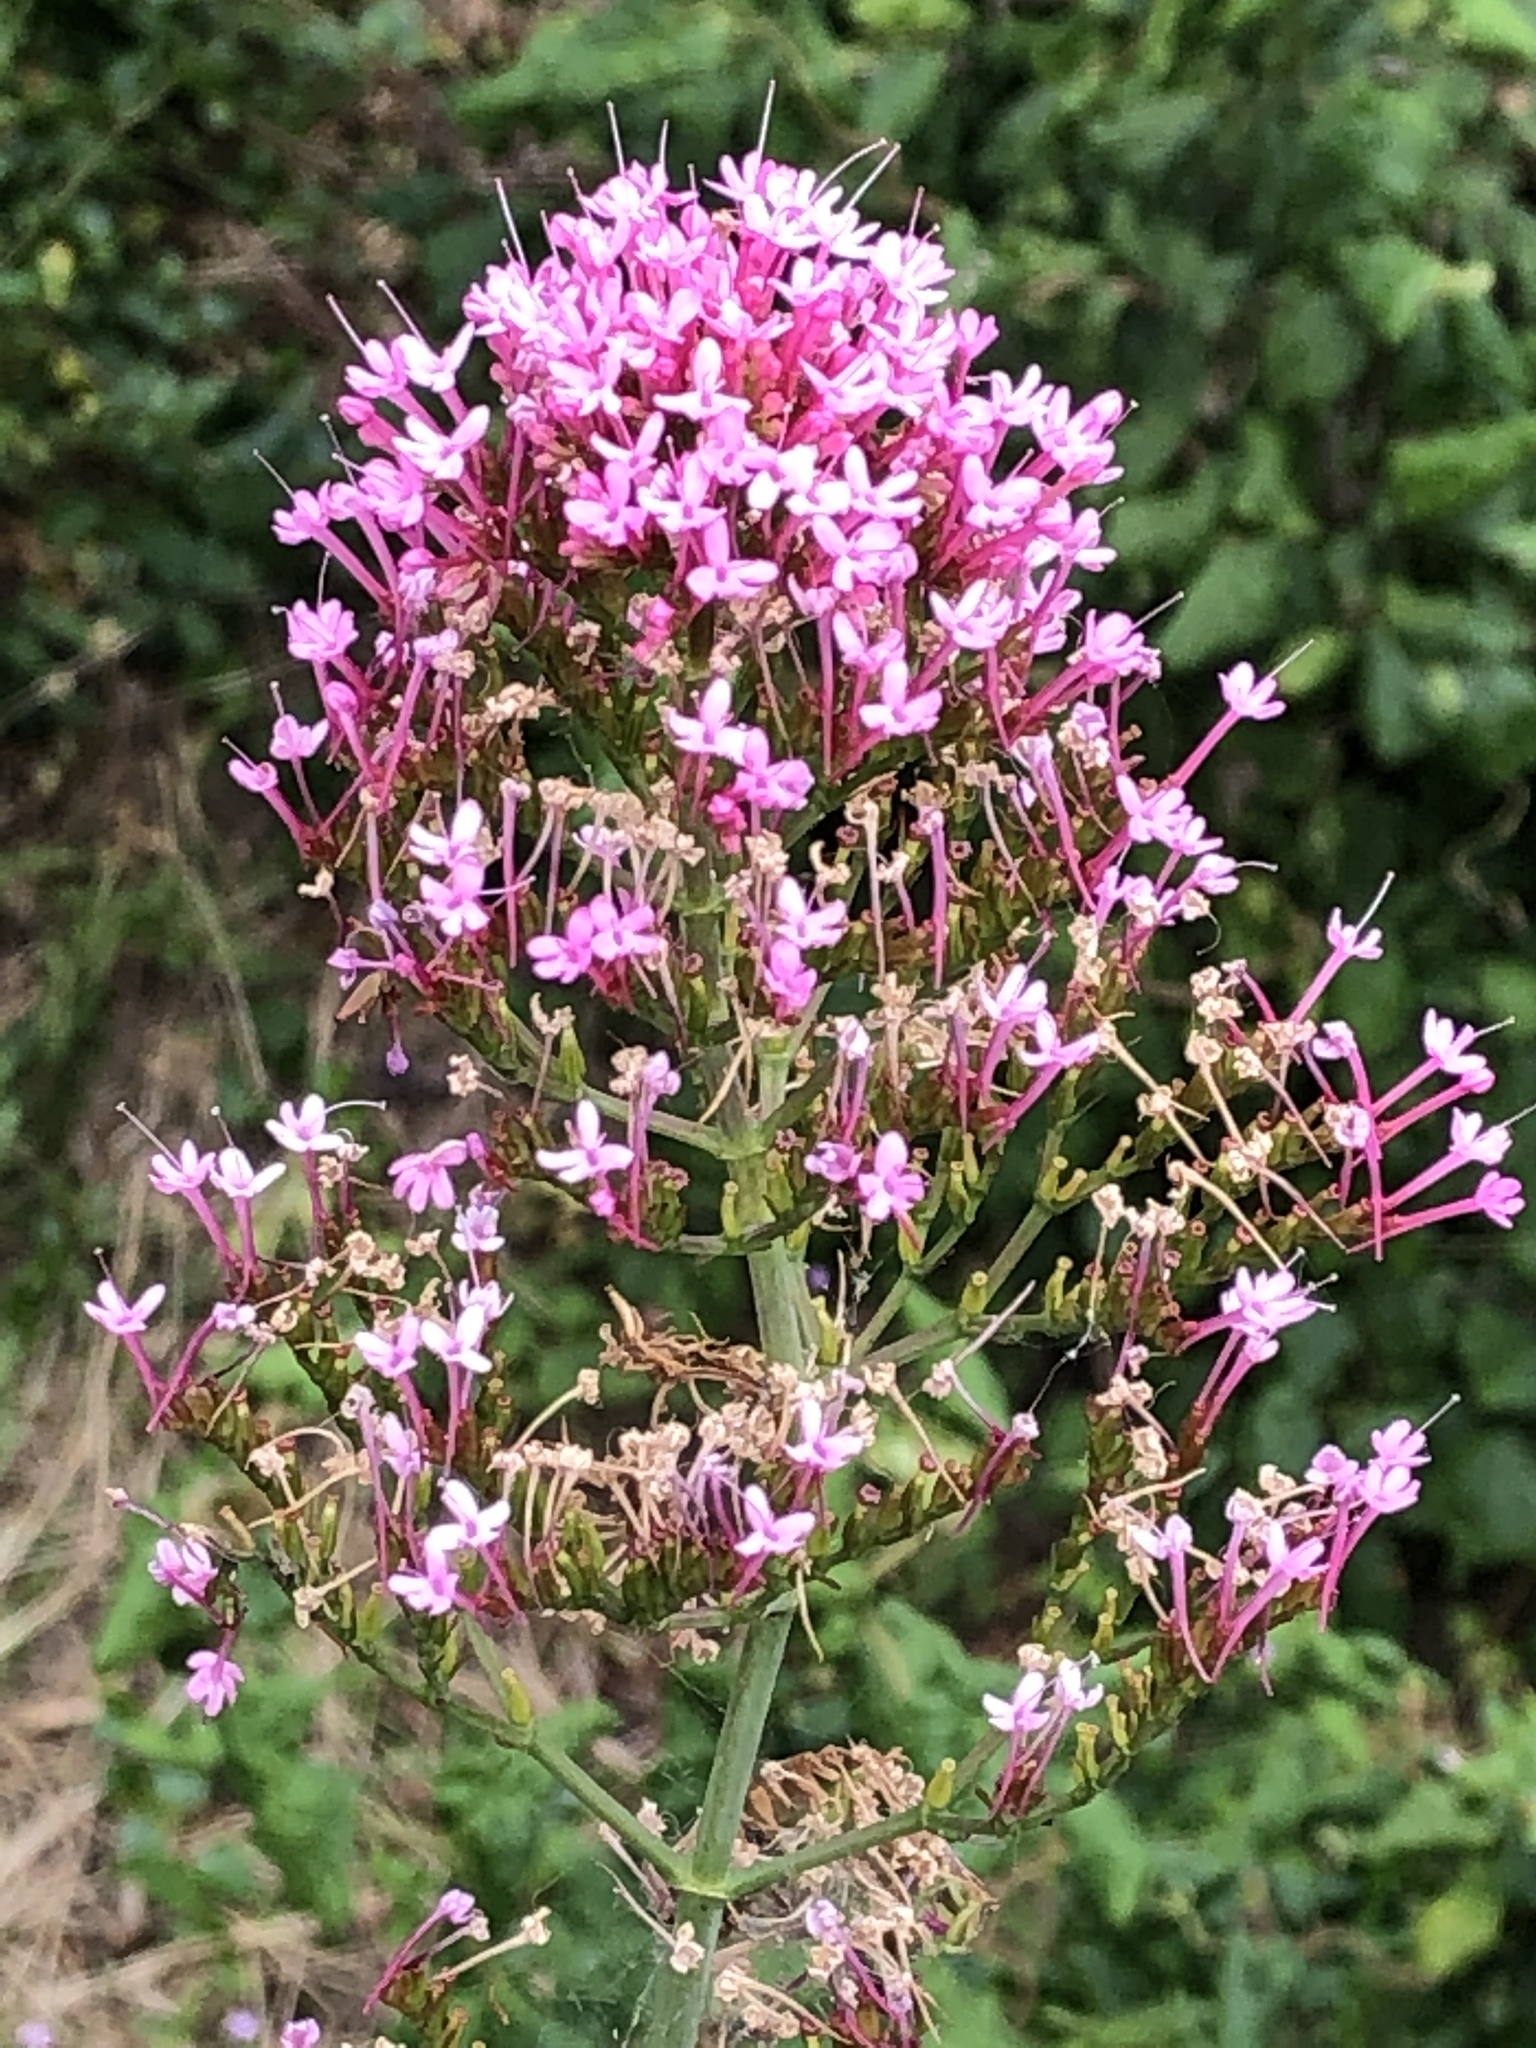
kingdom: Plantae
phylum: Tracheophyta
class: Magnoliopsida
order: Dipsacales
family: Caprifoliaceae
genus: Centranthus
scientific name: Centranthus ruber
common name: Red valerian
